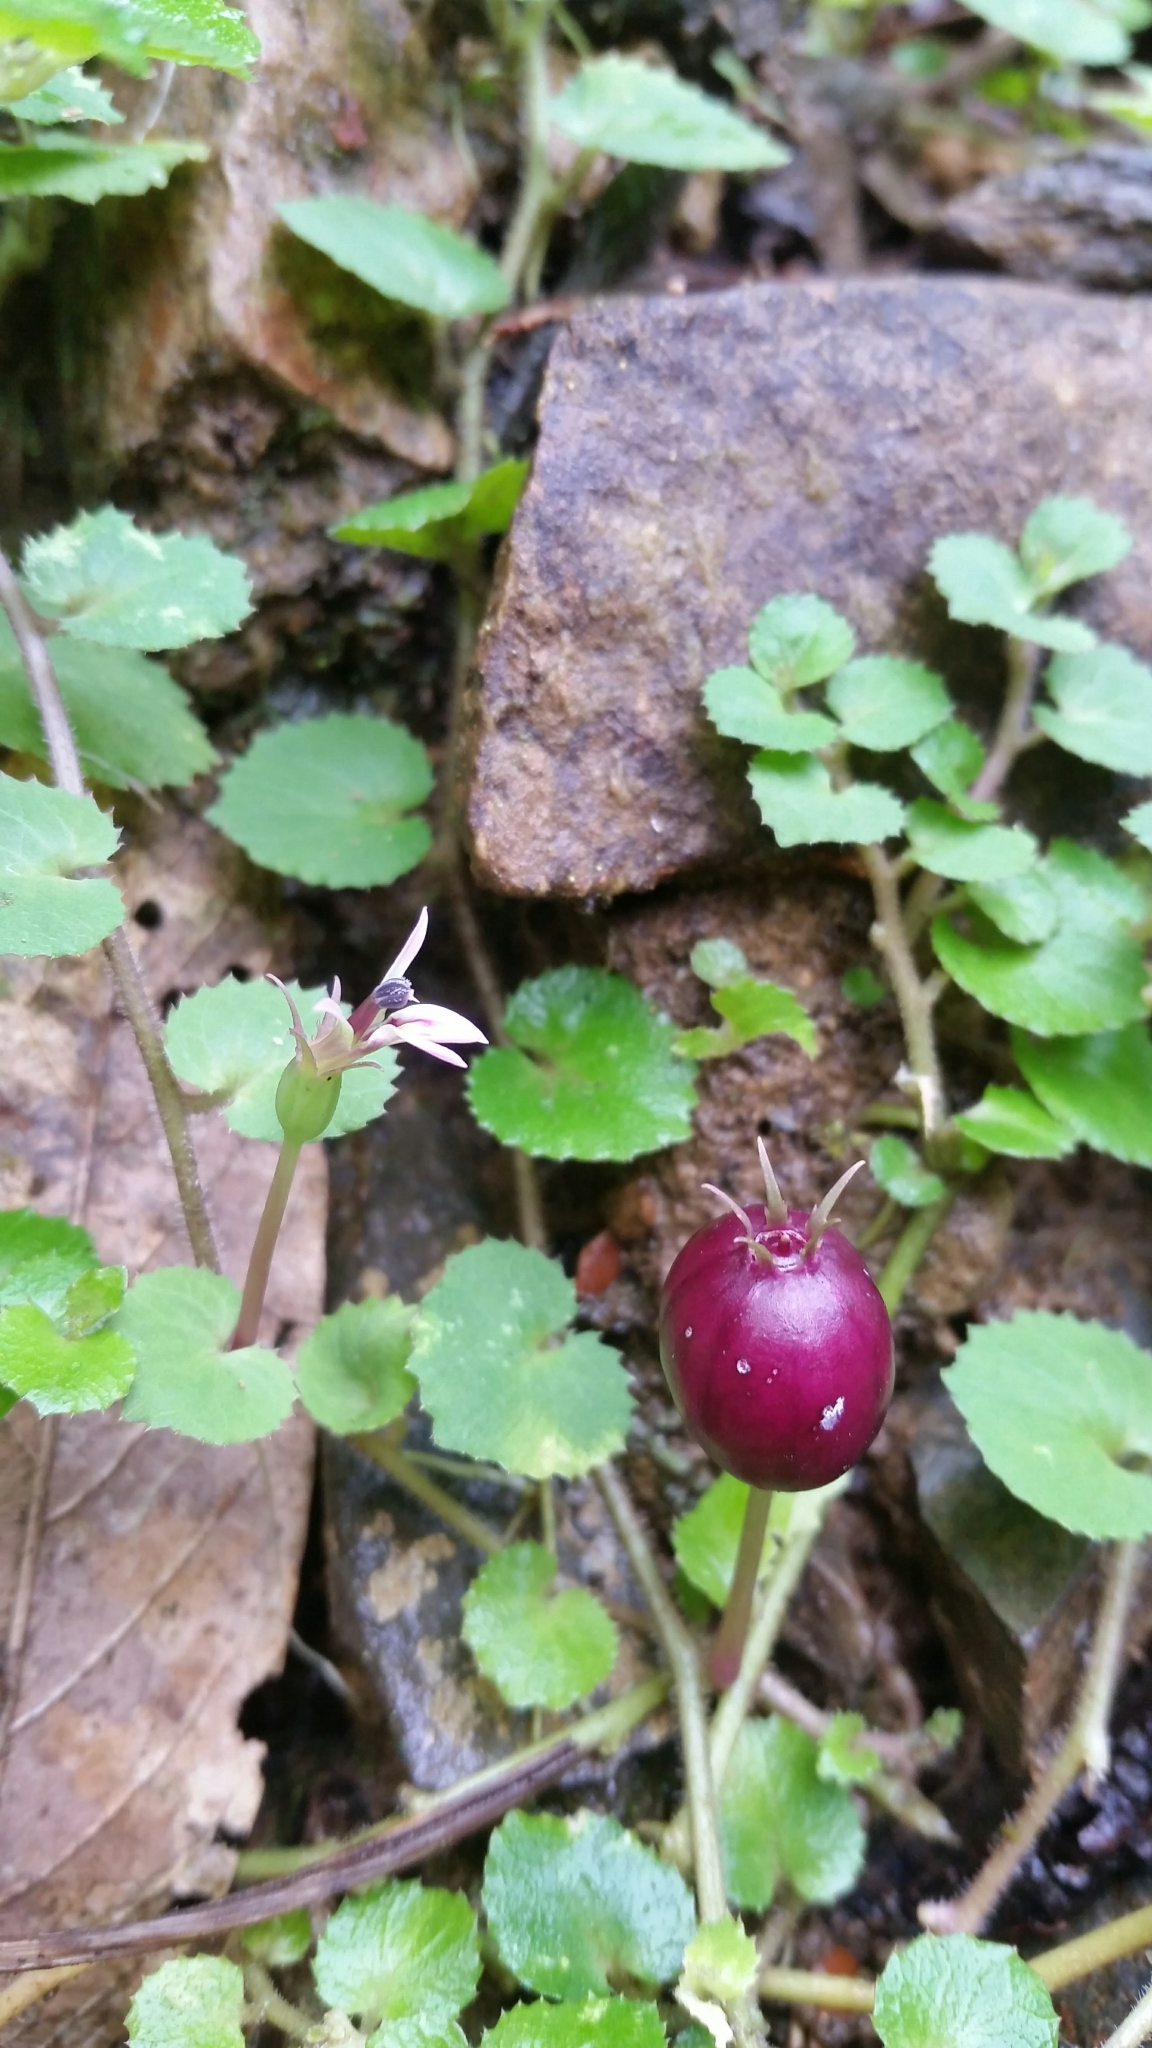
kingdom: Plantae
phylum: Tracheophyta
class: Magnoliopsida
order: Asterales
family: Campanulaceae
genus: Lobelia
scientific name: Lobelia nummularia
